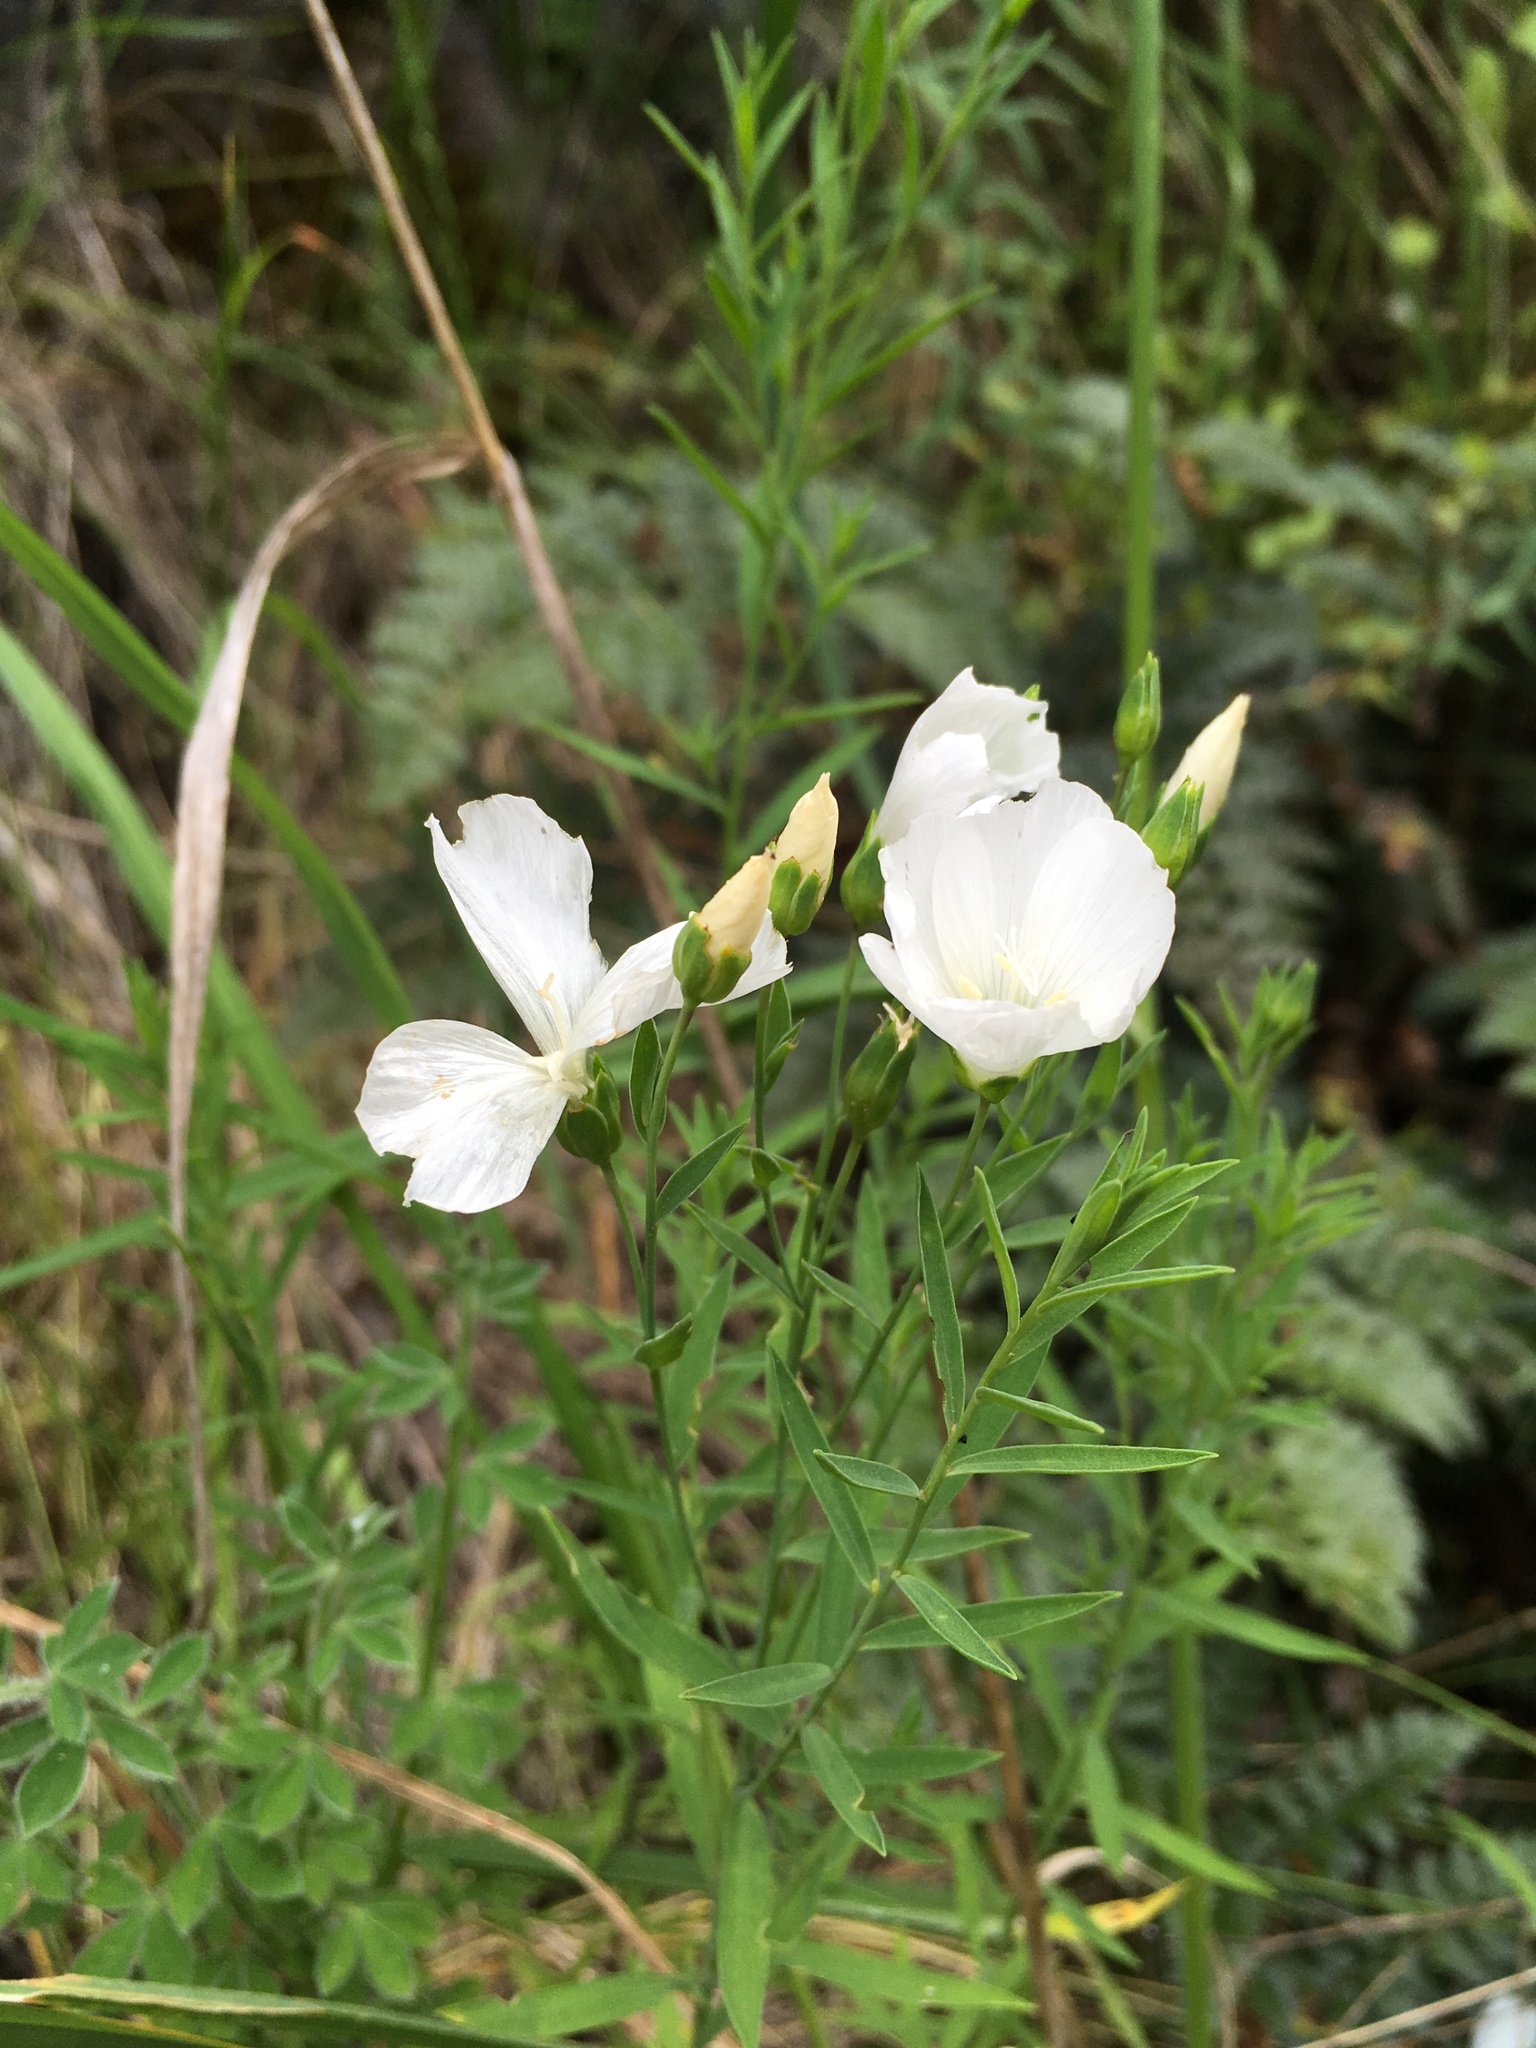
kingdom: Plantae
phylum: Tracheophyta
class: Magnoliopsida
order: Malpighiales
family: Linaceae
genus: Linum
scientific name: Linum monogynum
